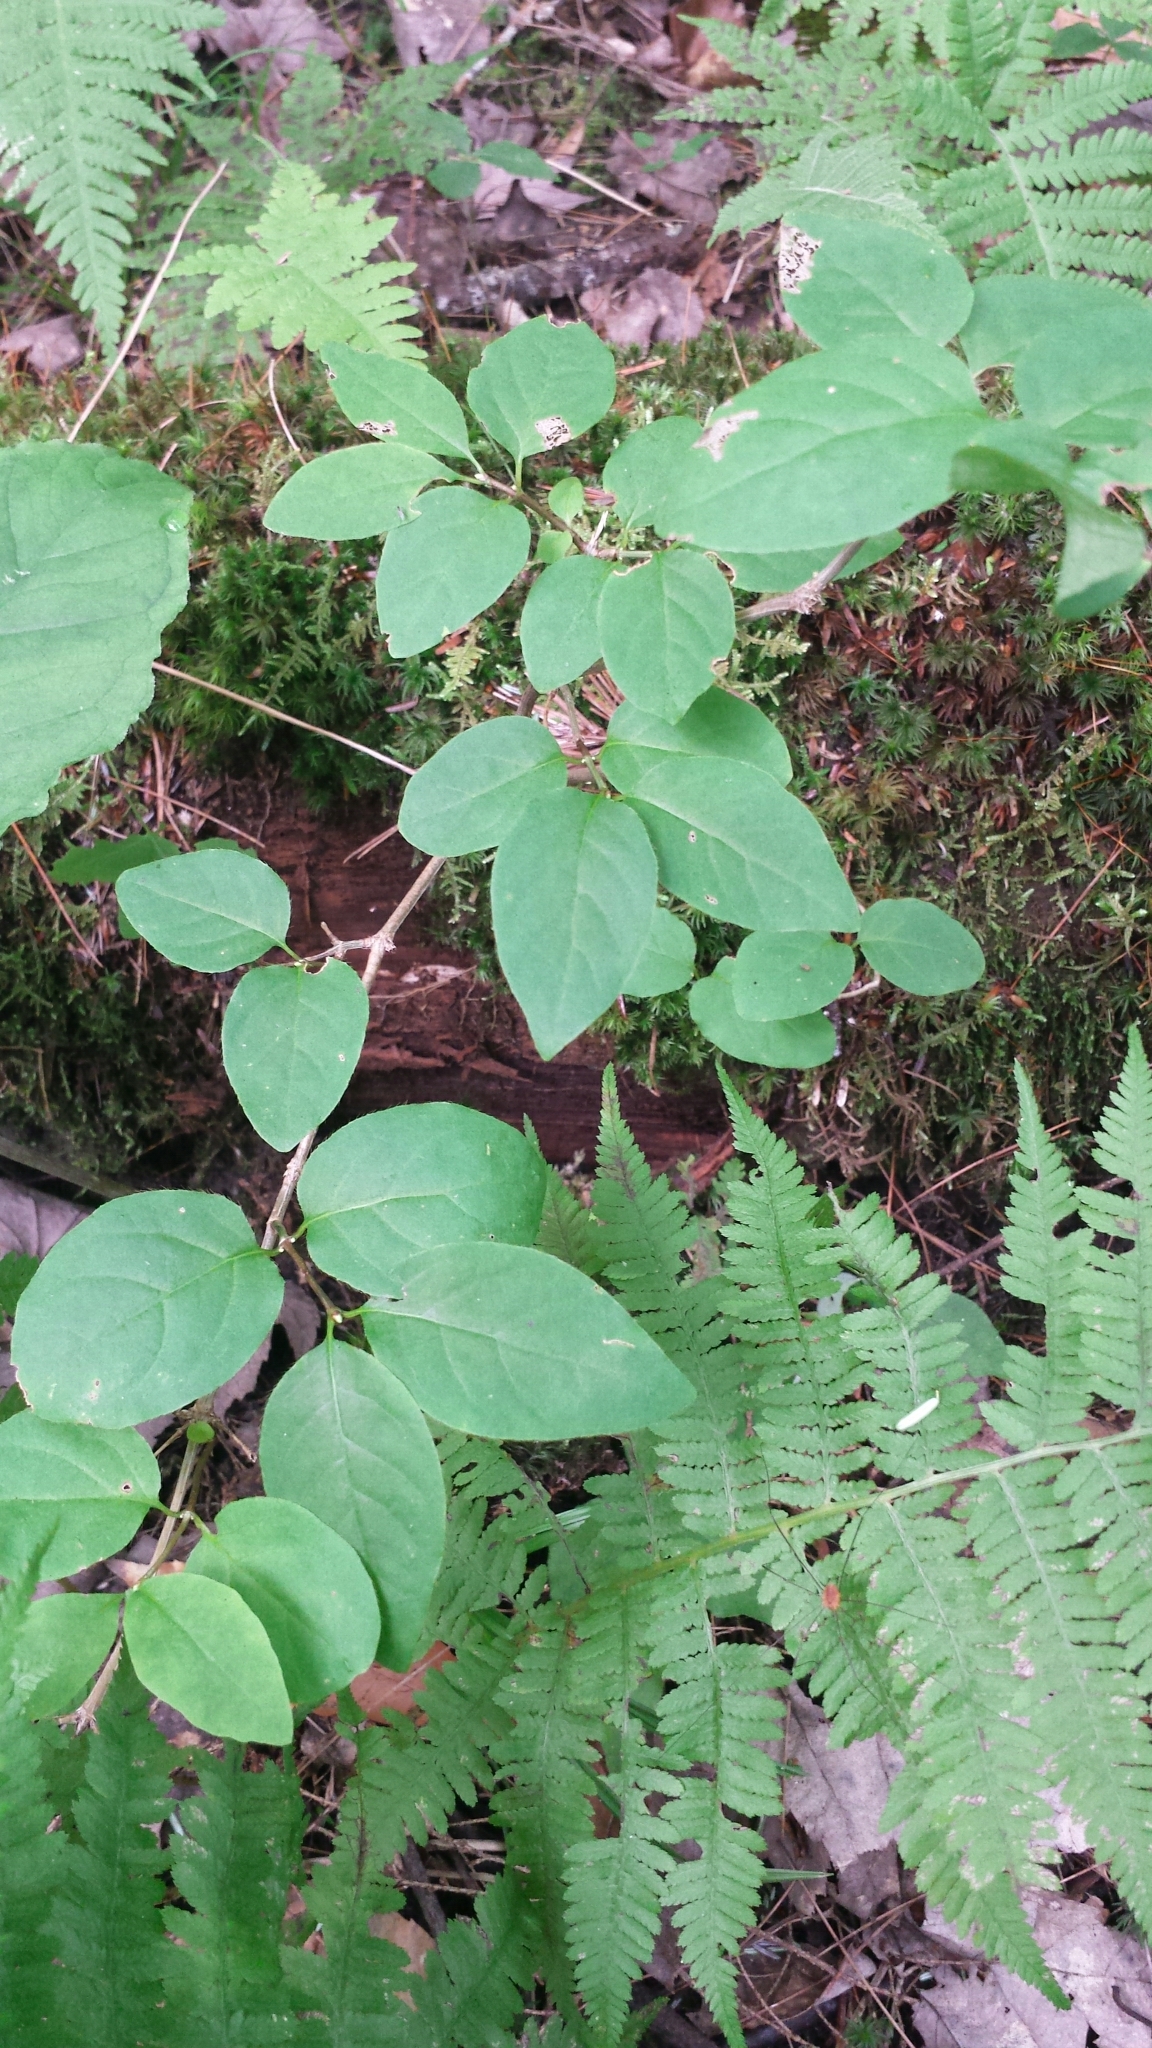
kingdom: Plantae
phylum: Tracheophyta
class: Magnoliopsida
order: Dipsacales
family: Caprifoliaceae
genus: Lonicera
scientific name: Lonicera canadensis
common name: American fly-honeysuckle
